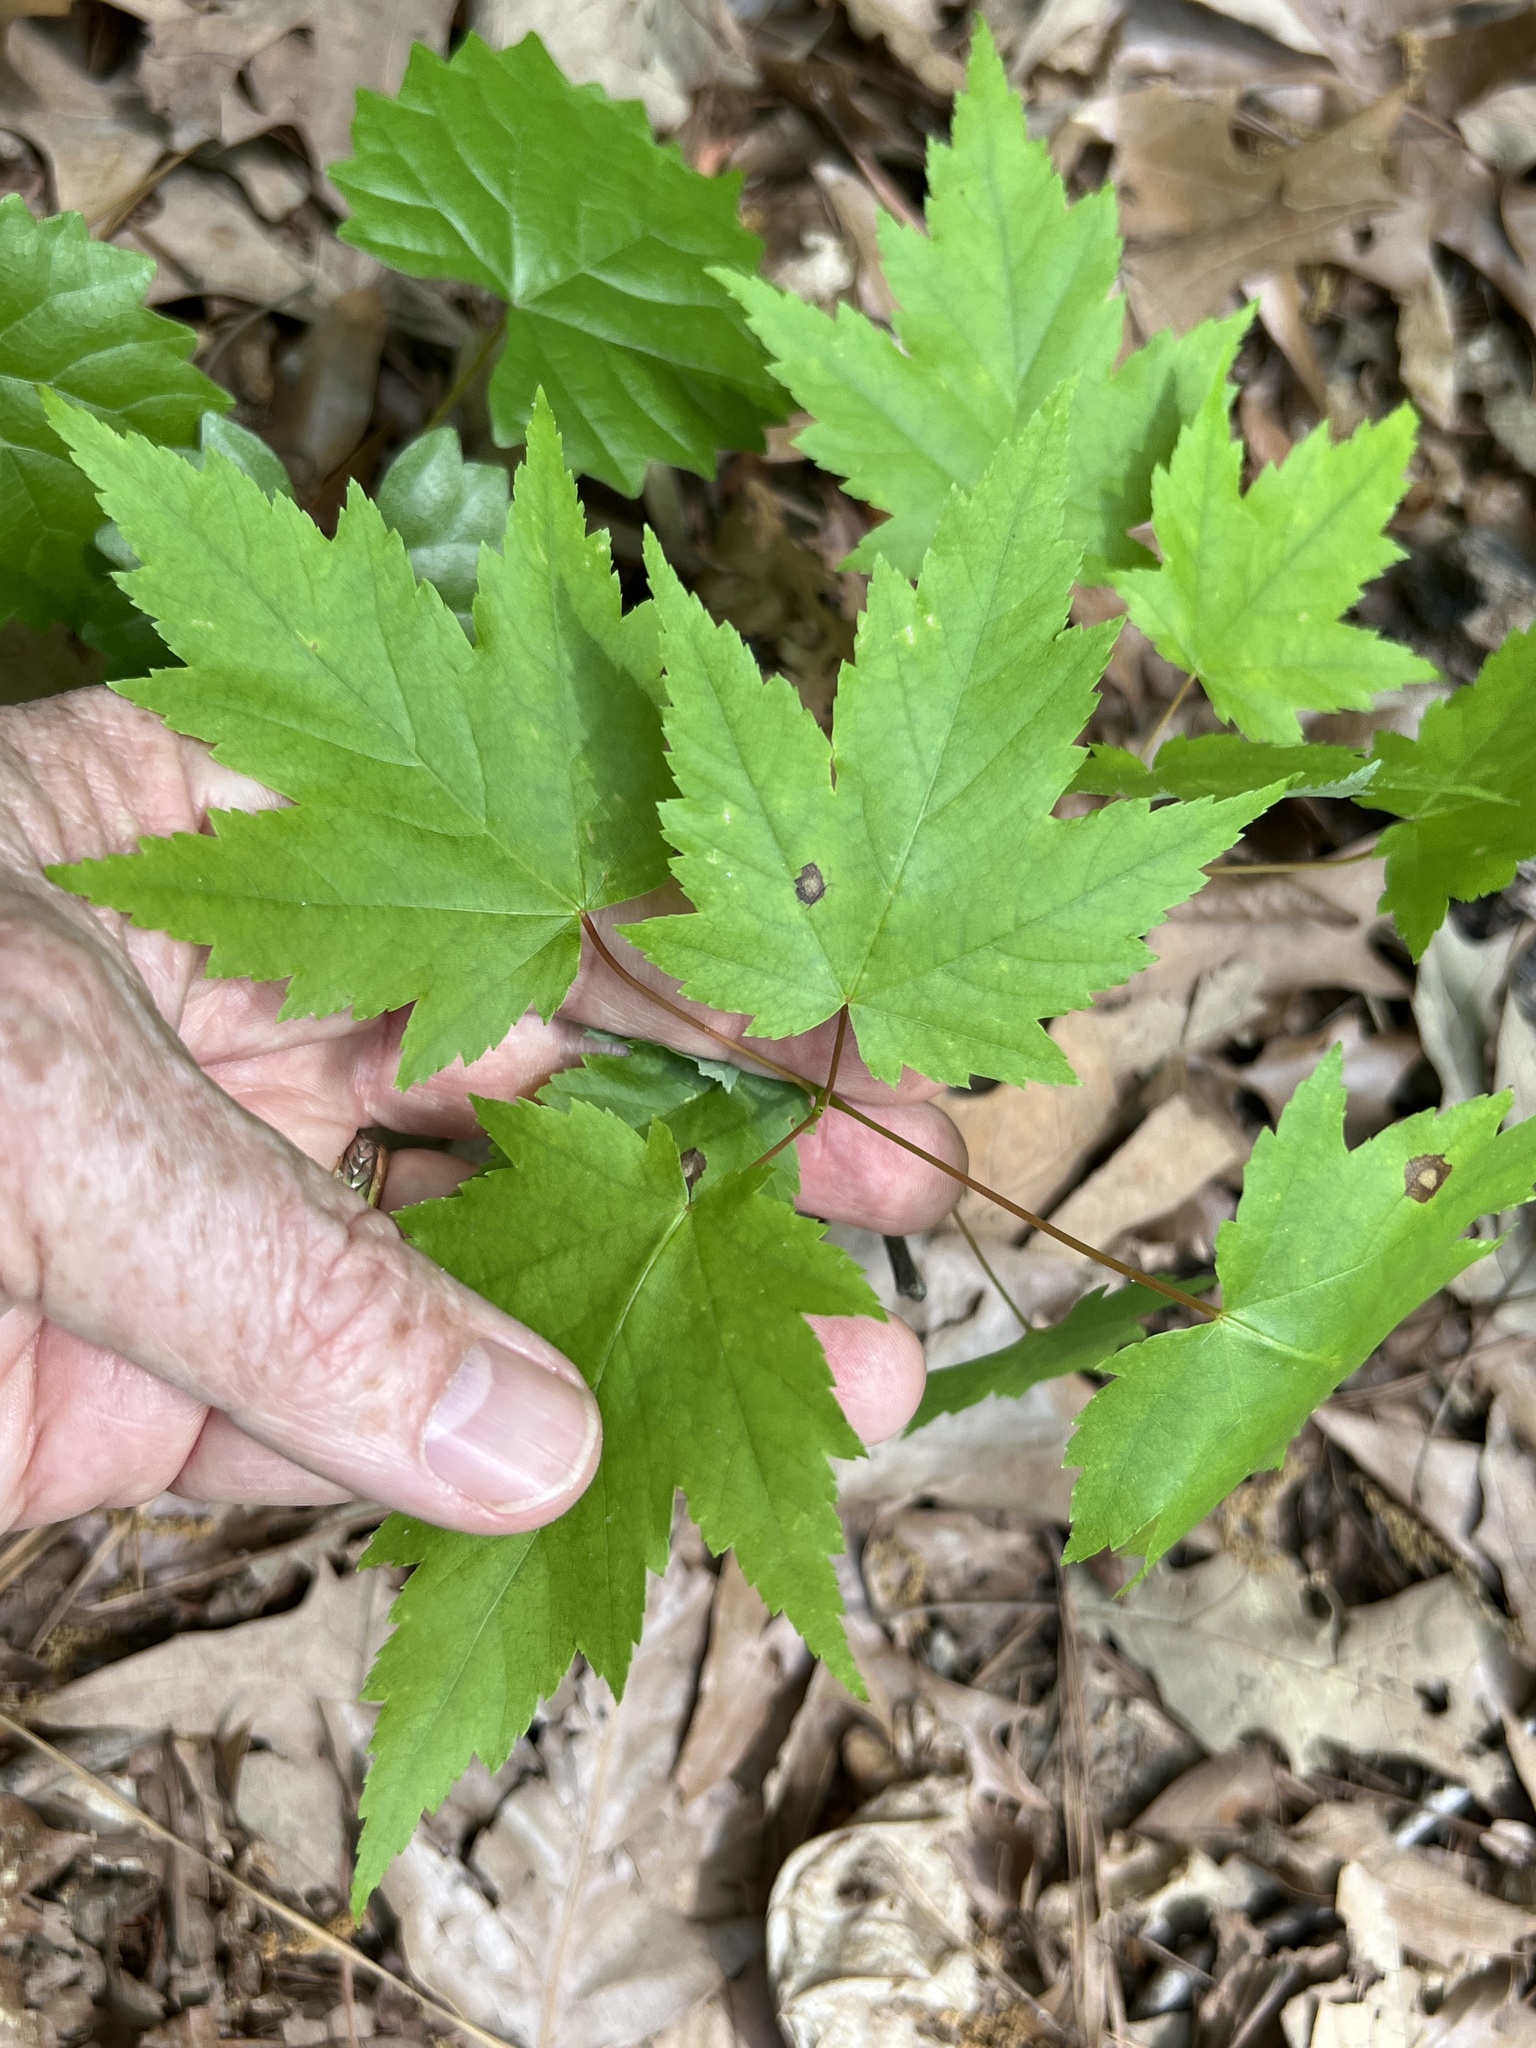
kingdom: Plantae
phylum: Tracheophyta
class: Magnoliopsida
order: Sapindales
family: Sapindaceae
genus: Acer
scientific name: Acer rubrum
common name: Red maple
